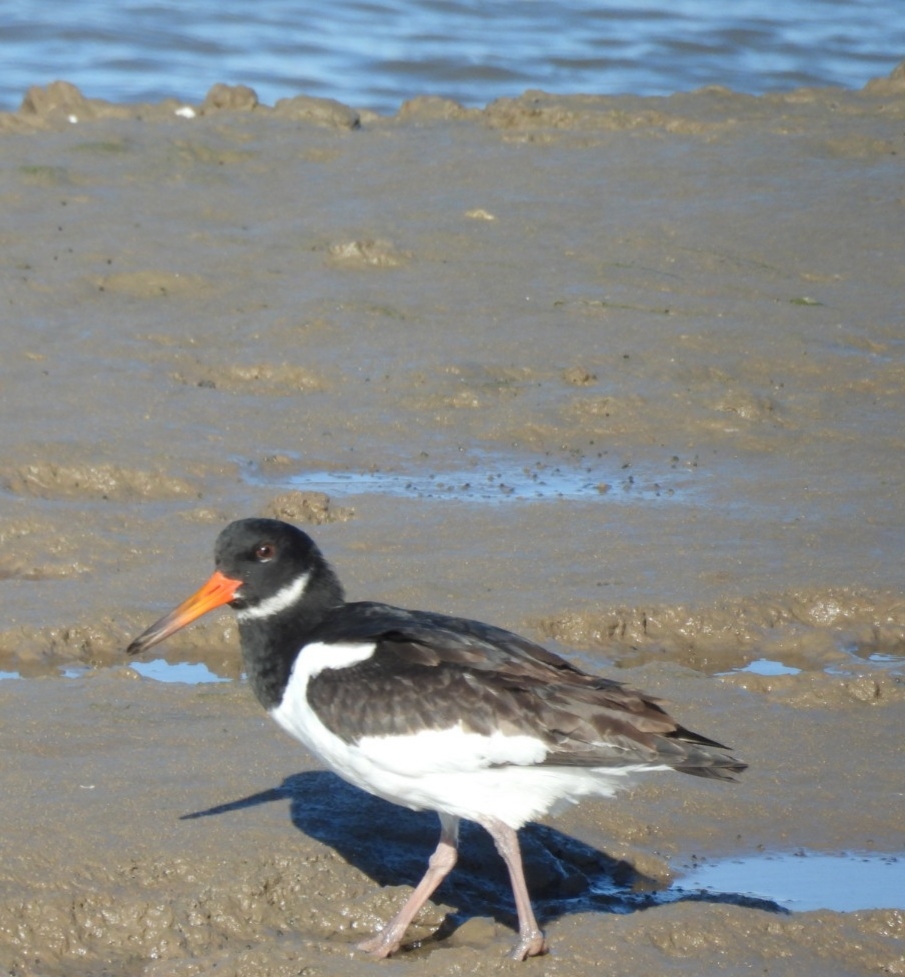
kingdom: Animalia
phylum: Chordata
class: Aves
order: Charadriiformes
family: Haematopodidae
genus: Haematopus
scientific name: Haematopus ostralegus
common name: Eurasian oystercatcher
